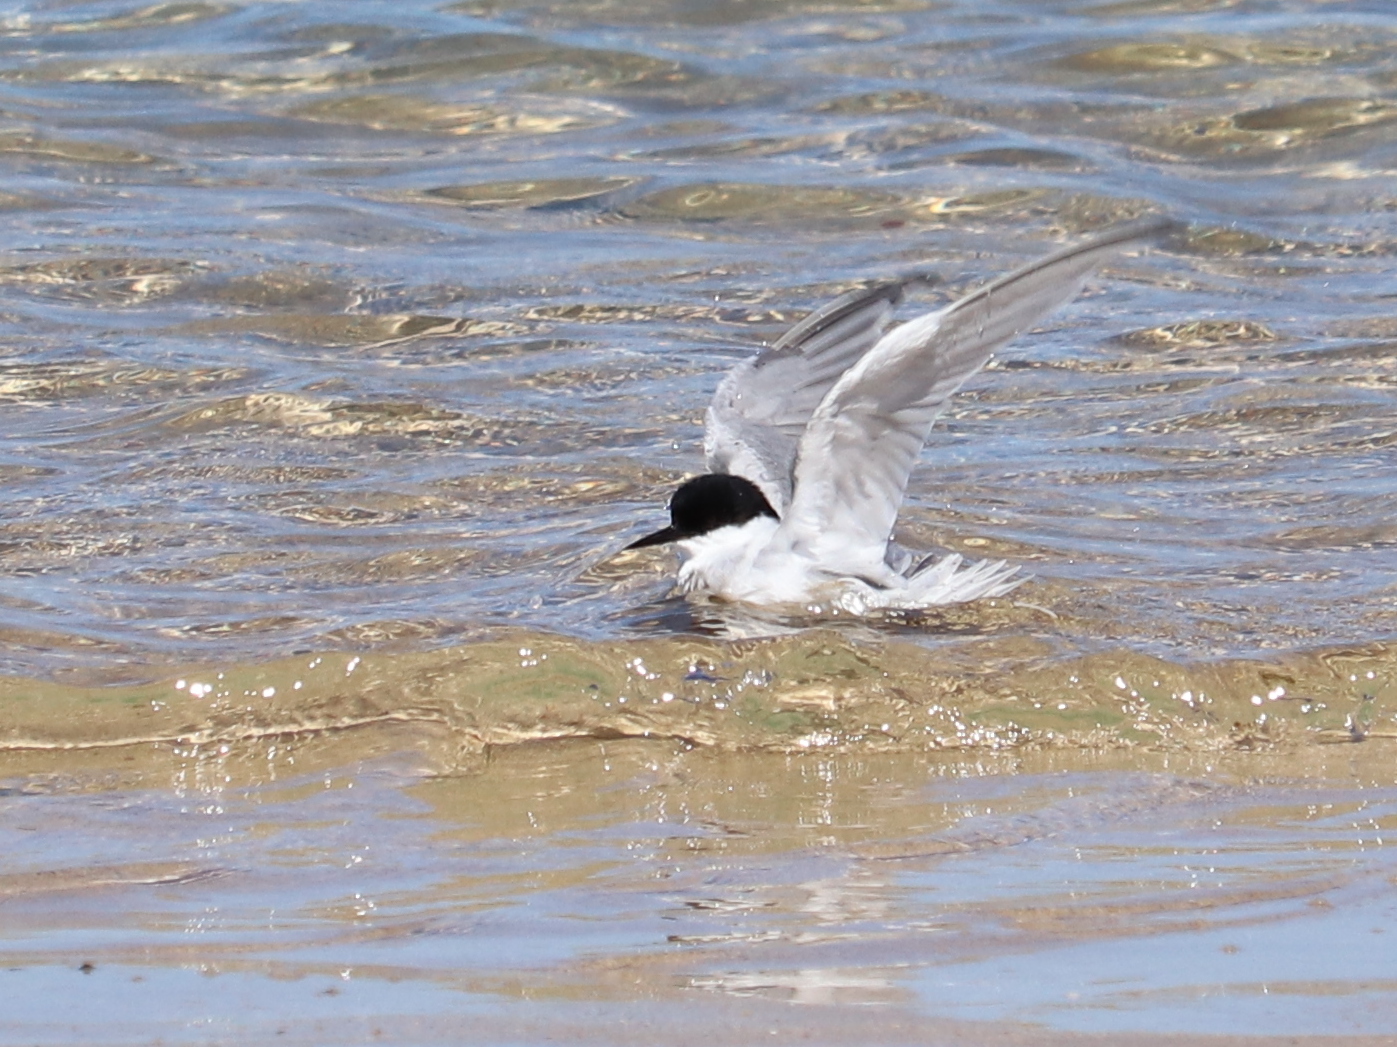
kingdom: Animalia
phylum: Chordata
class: Aves
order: Charadriiformes
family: Laridae
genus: Sternula
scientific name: Sternula balaenarum
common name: Damara tern
